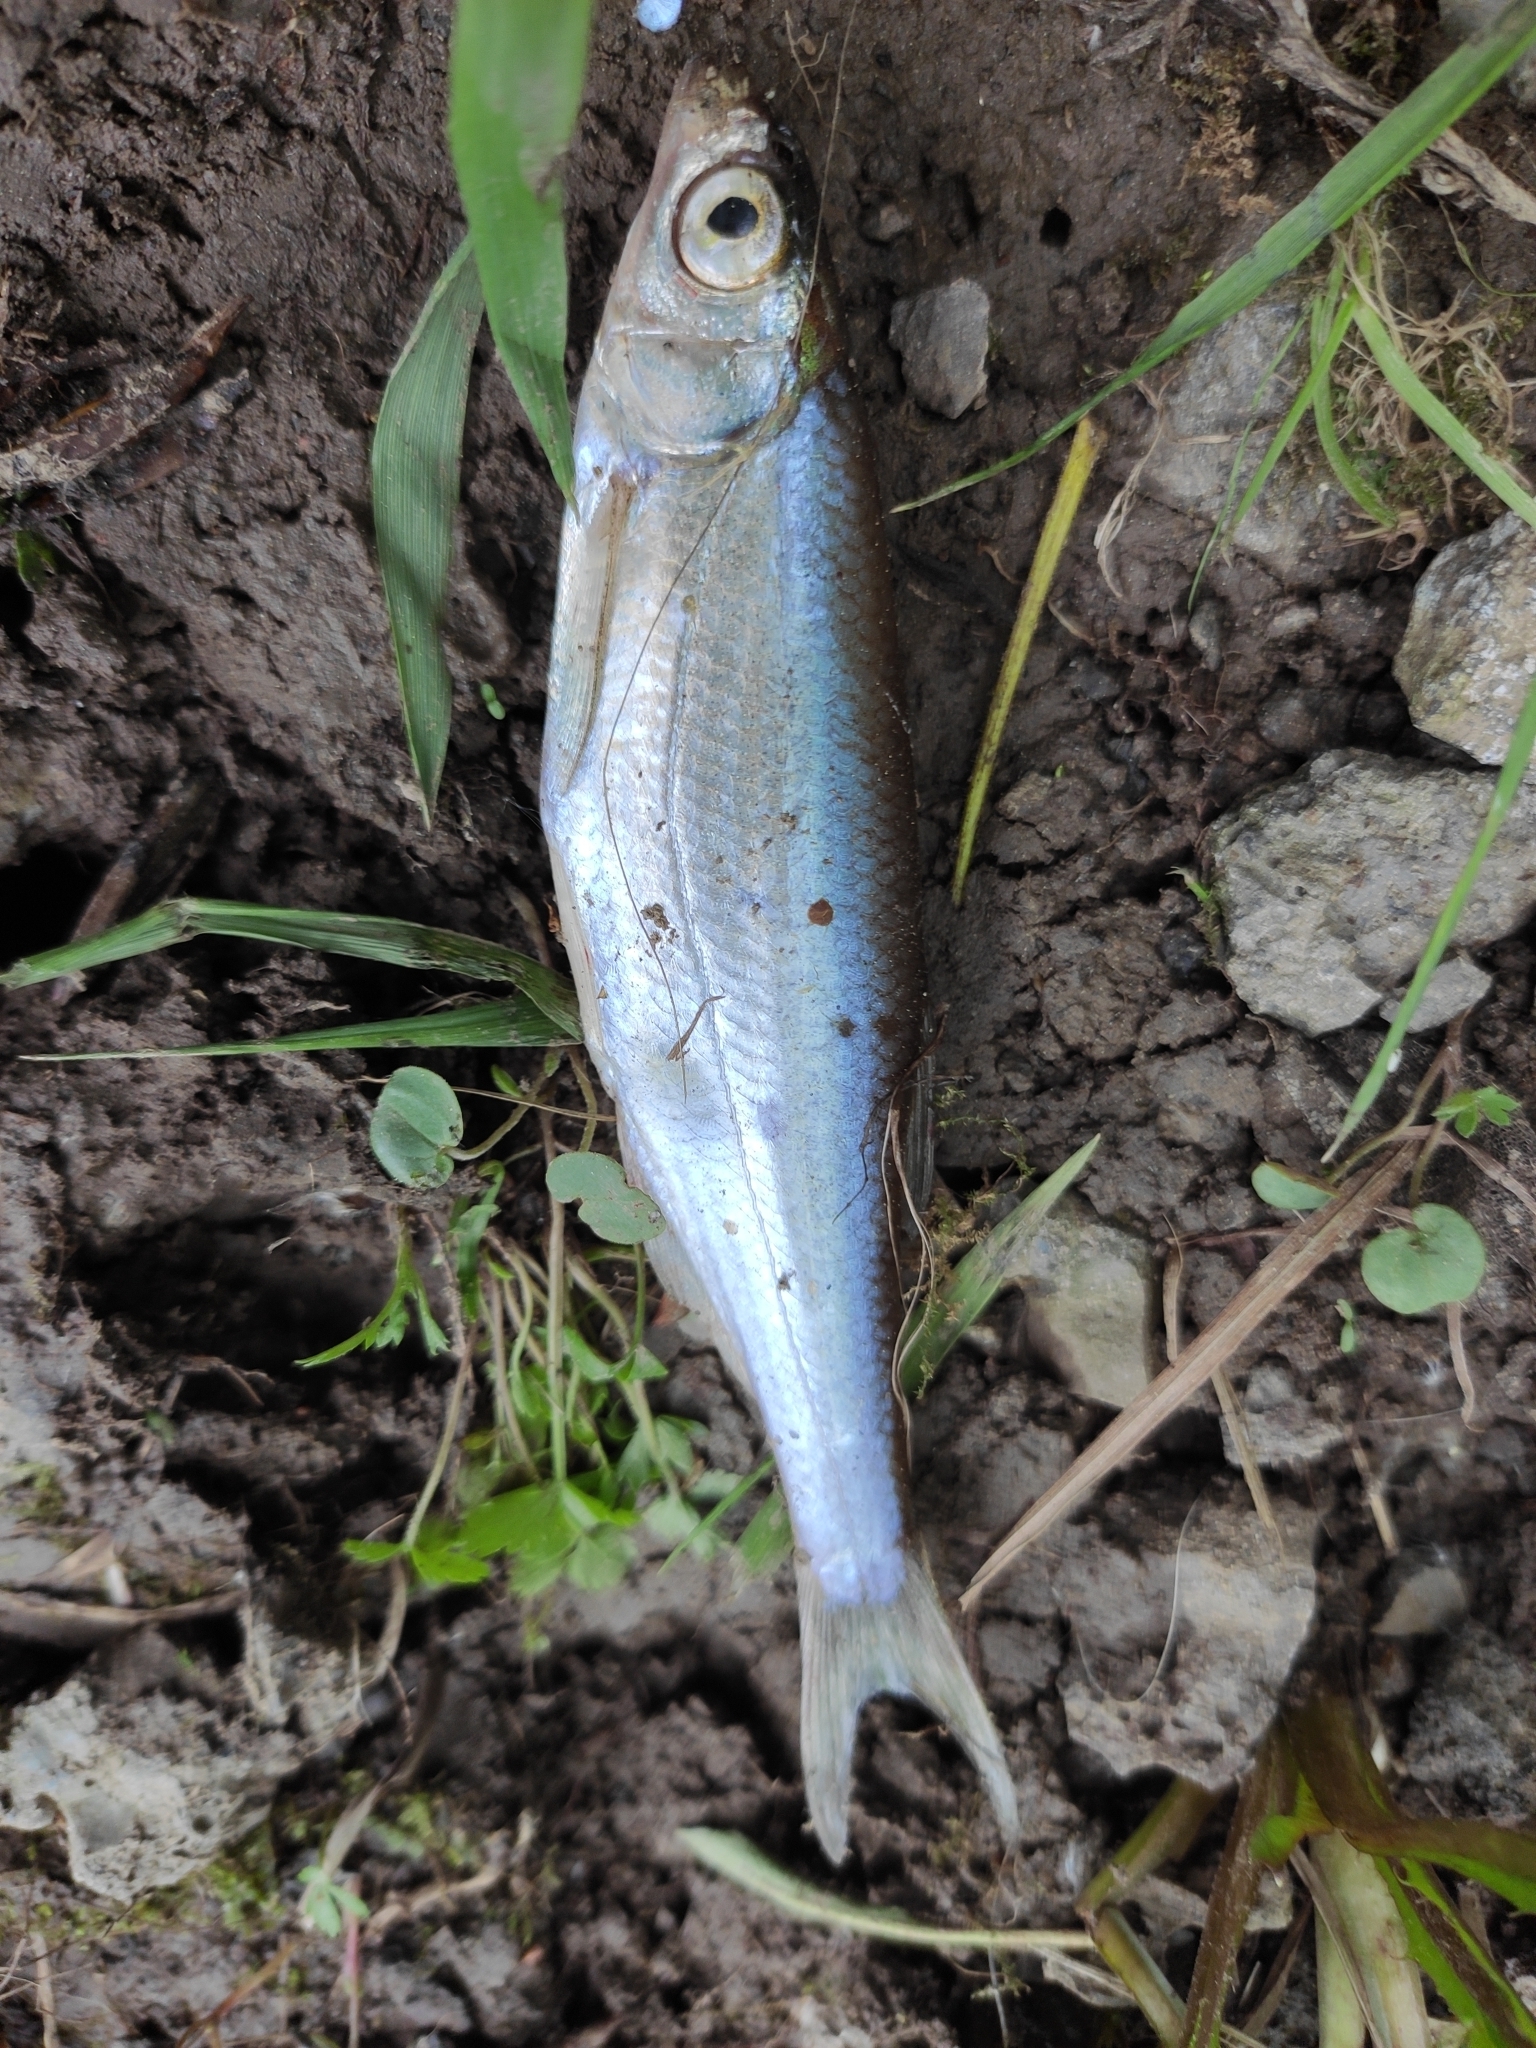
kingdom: Animalia
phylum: Chordata
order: Cypriniformes
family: Cyprinidae
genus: Alburnus
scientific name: Alburnus alburnus
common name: Bleak
